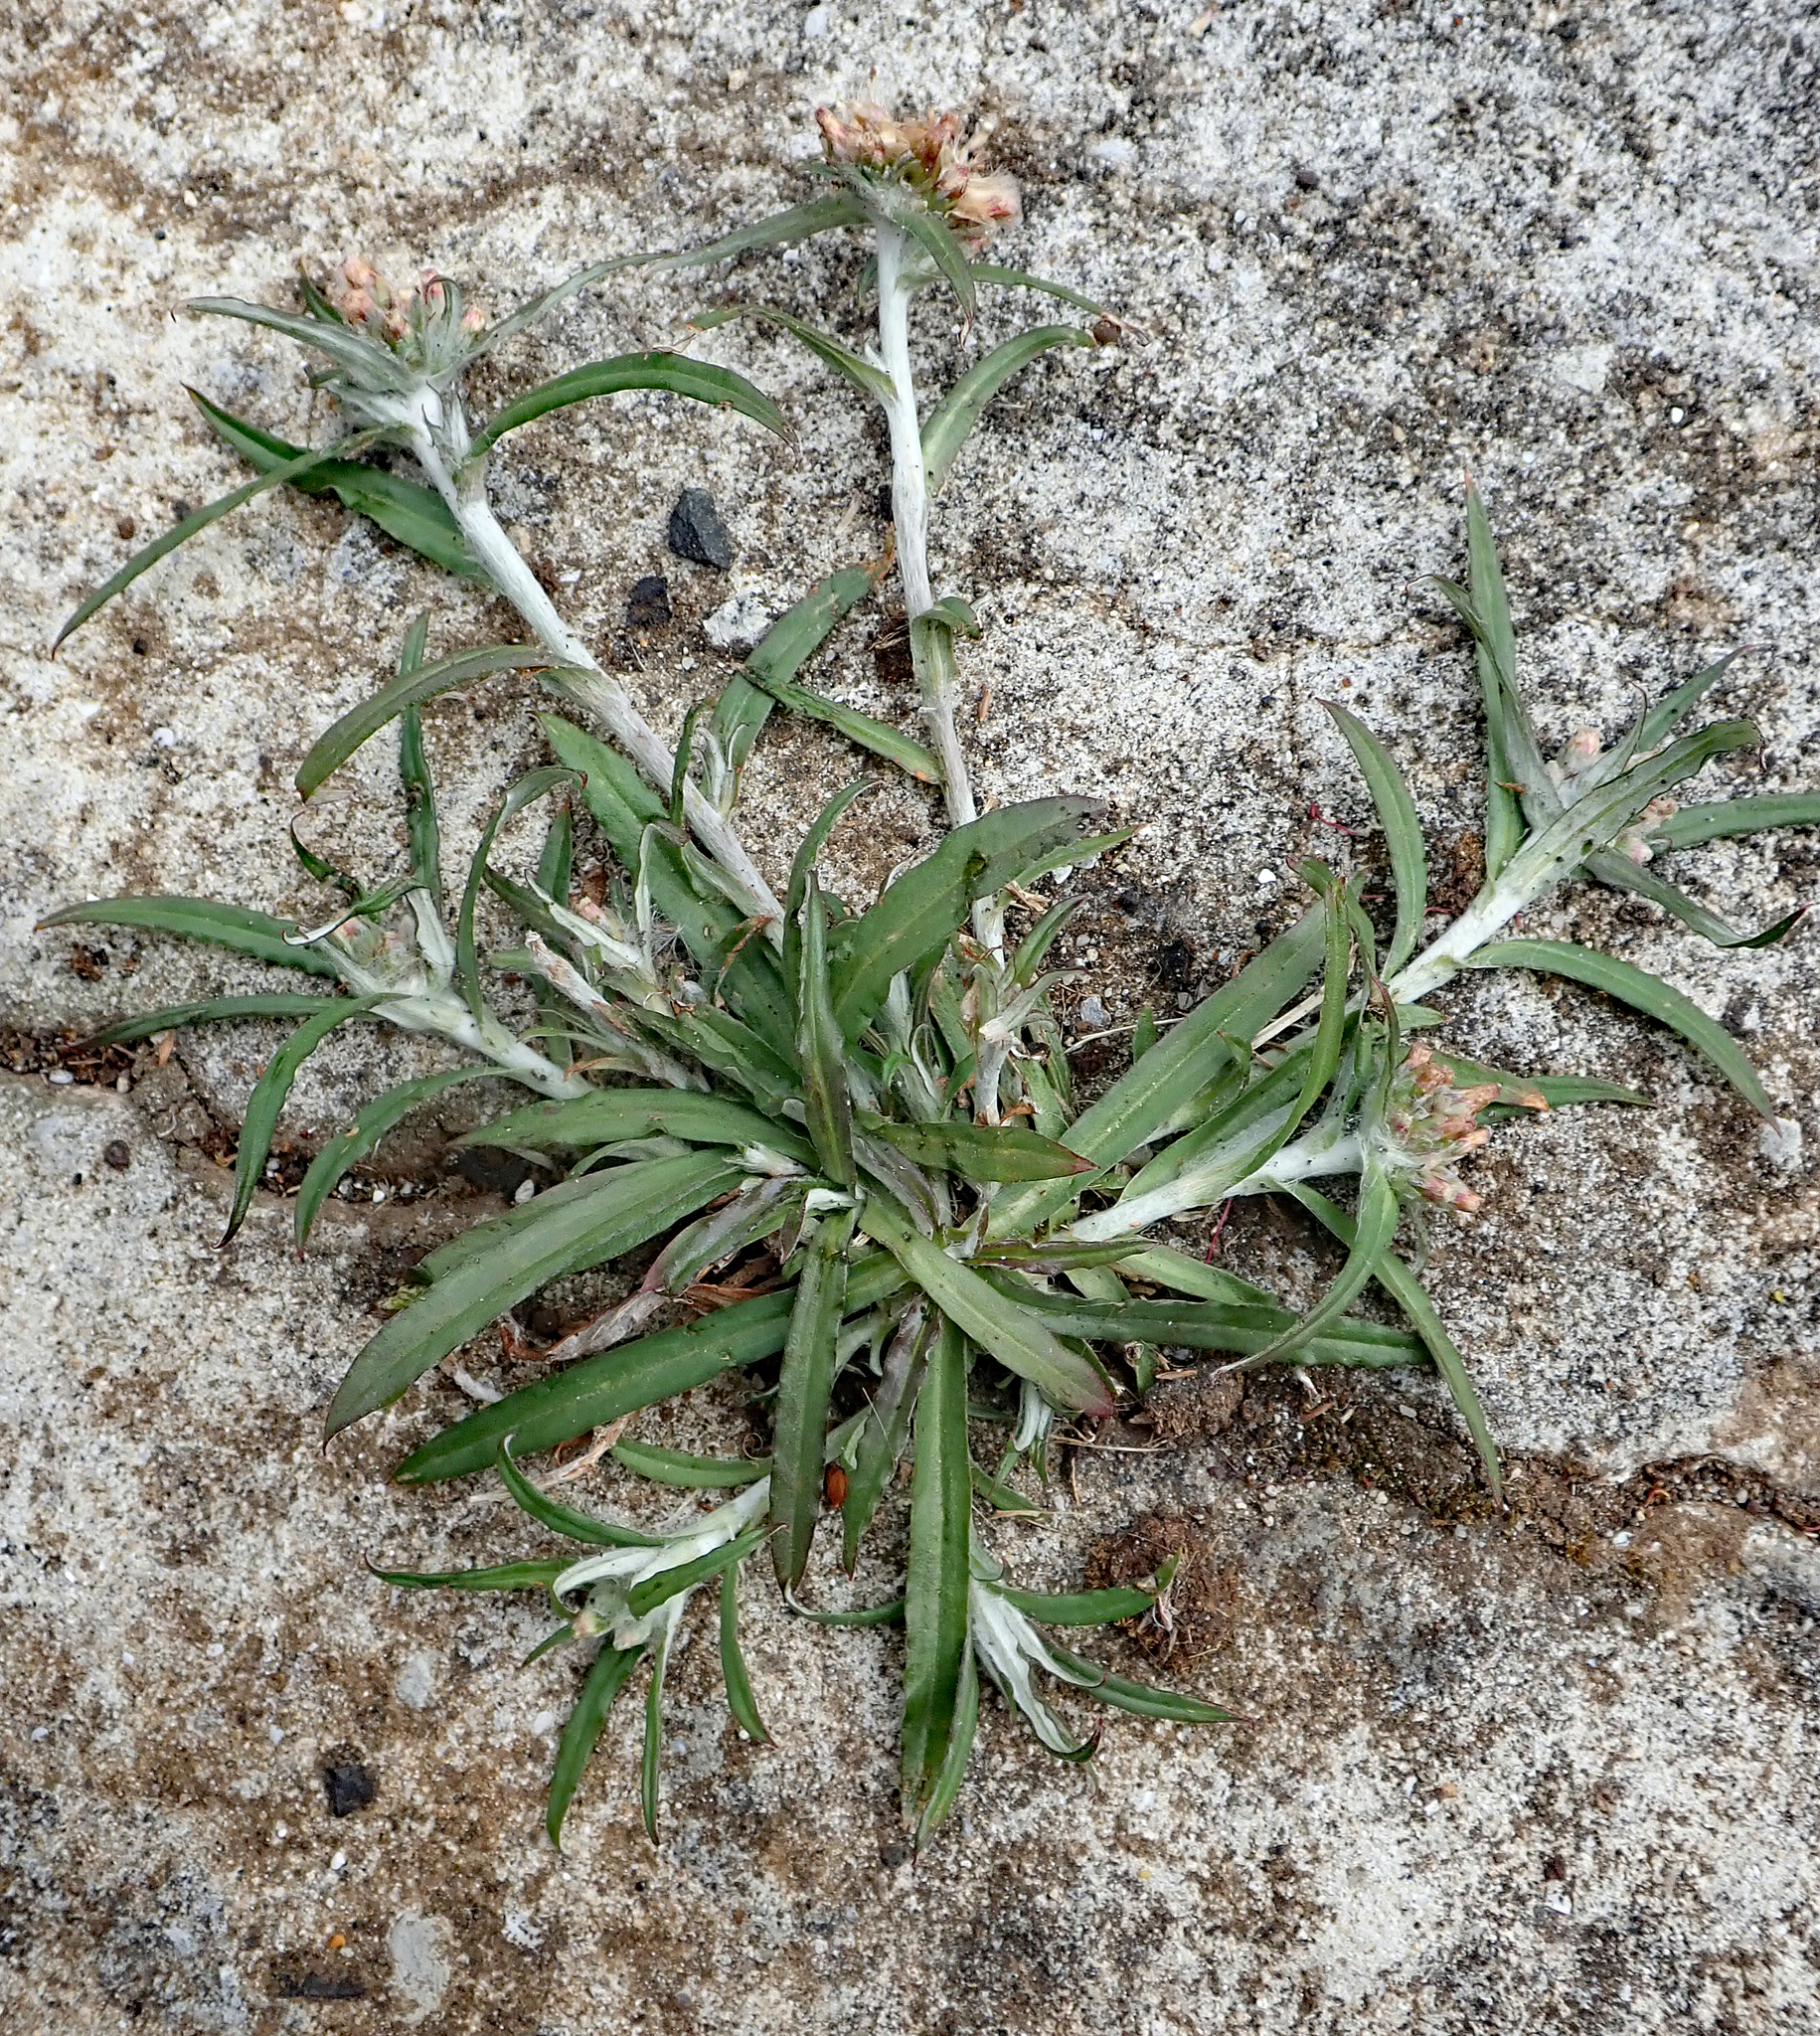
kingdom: Plantae
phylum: Tracheophyta
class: Magnoliopsida
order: Asterales
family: Asteraceae
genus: Euchiton
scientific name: Euchiton involucratus
